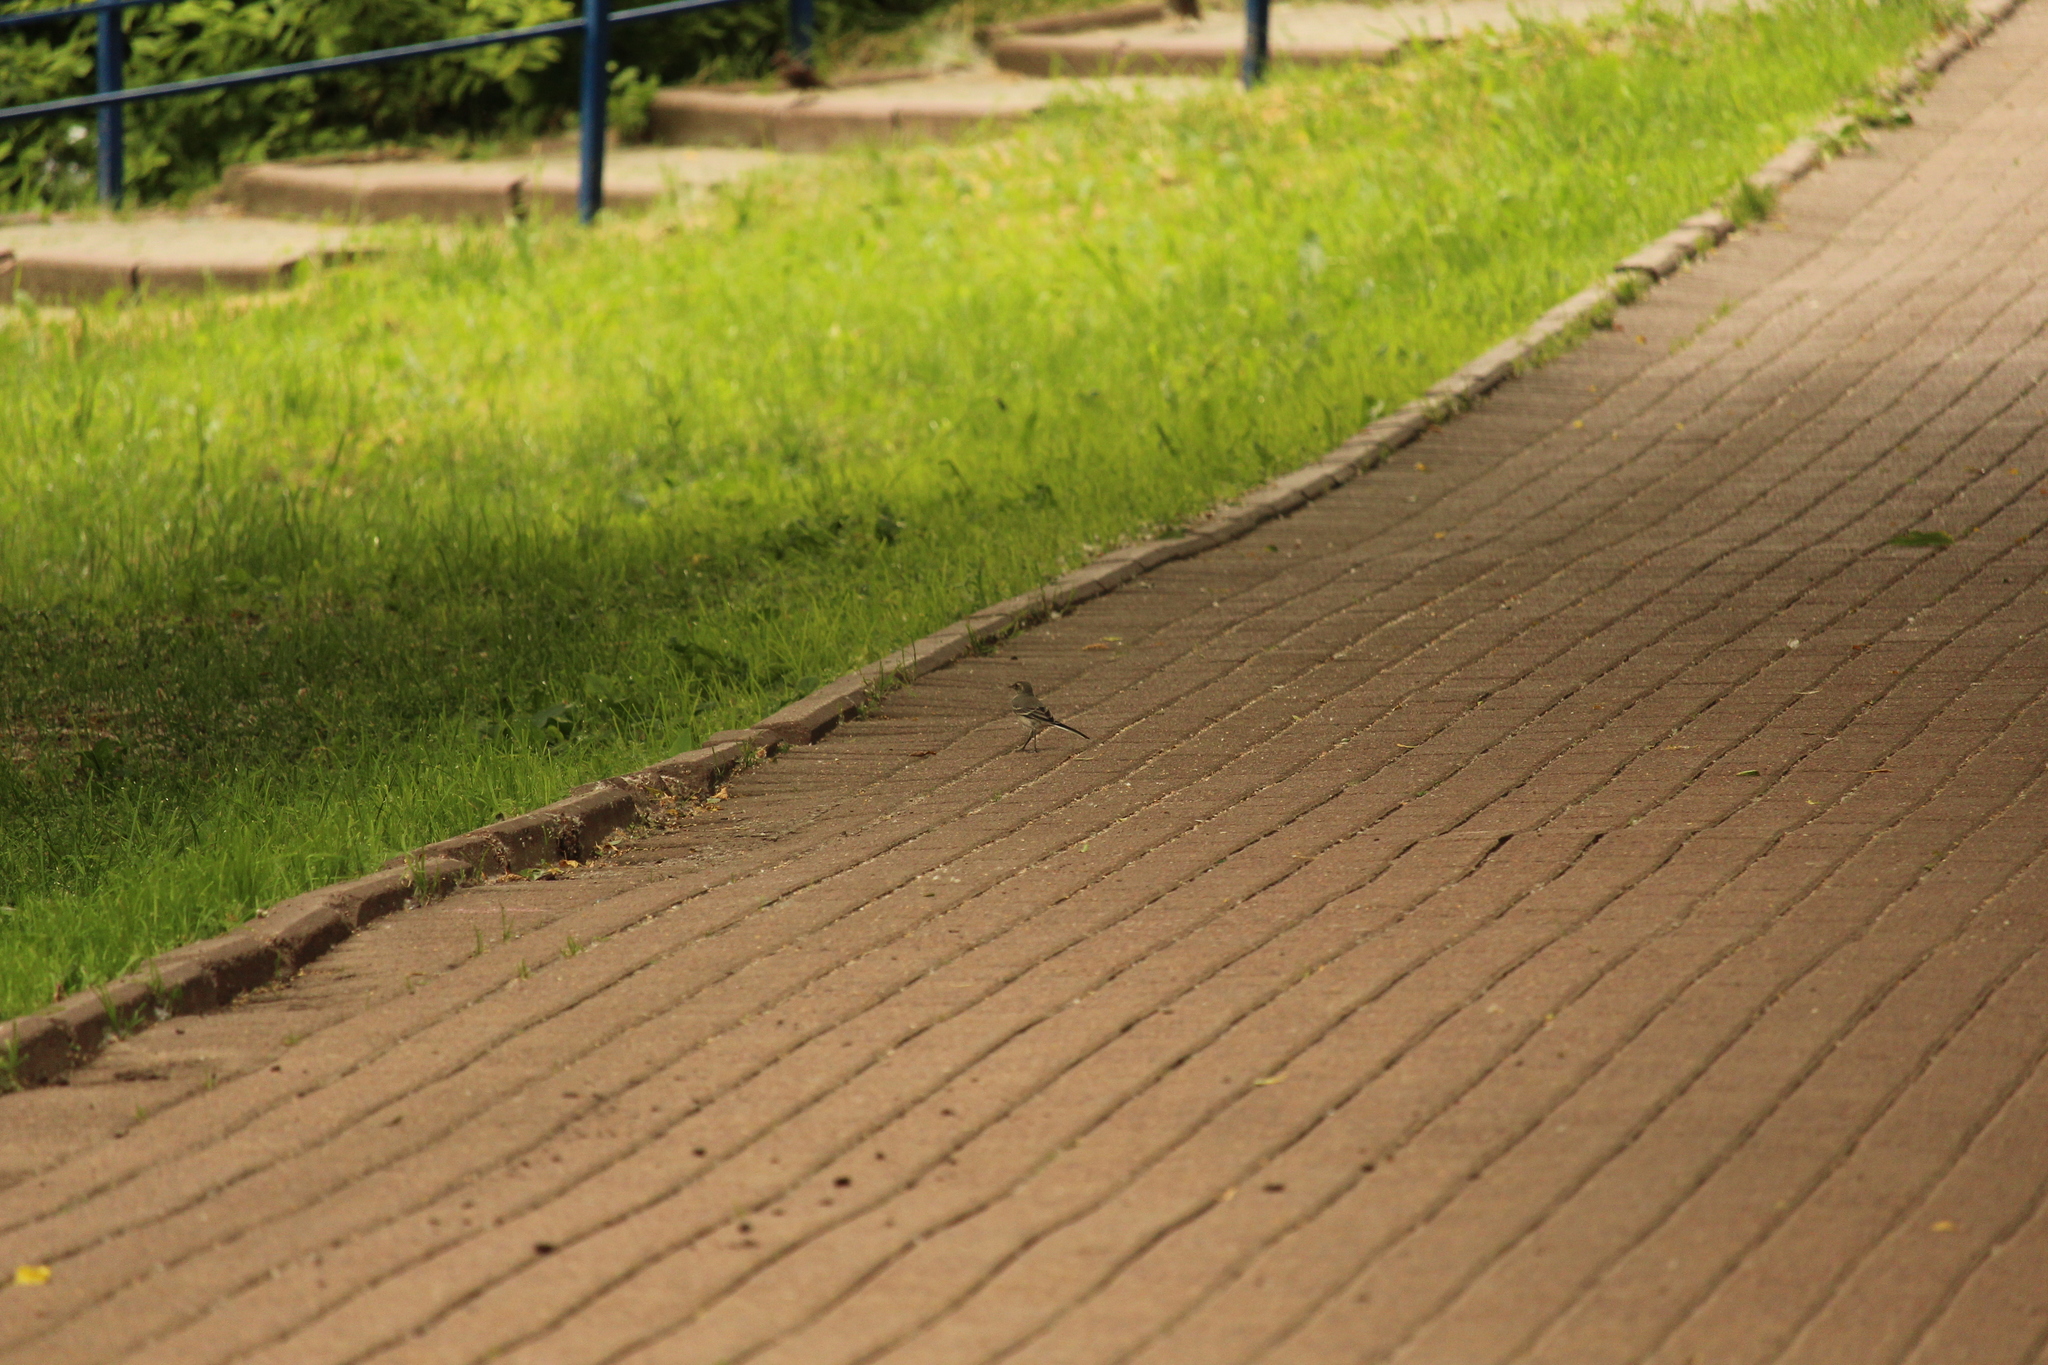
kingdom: Animalia
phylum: Chordata
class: Aves
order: Passeriformes
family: Motacillidae
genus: Motacilla
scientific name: Motacilla alba
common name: White wagtail
